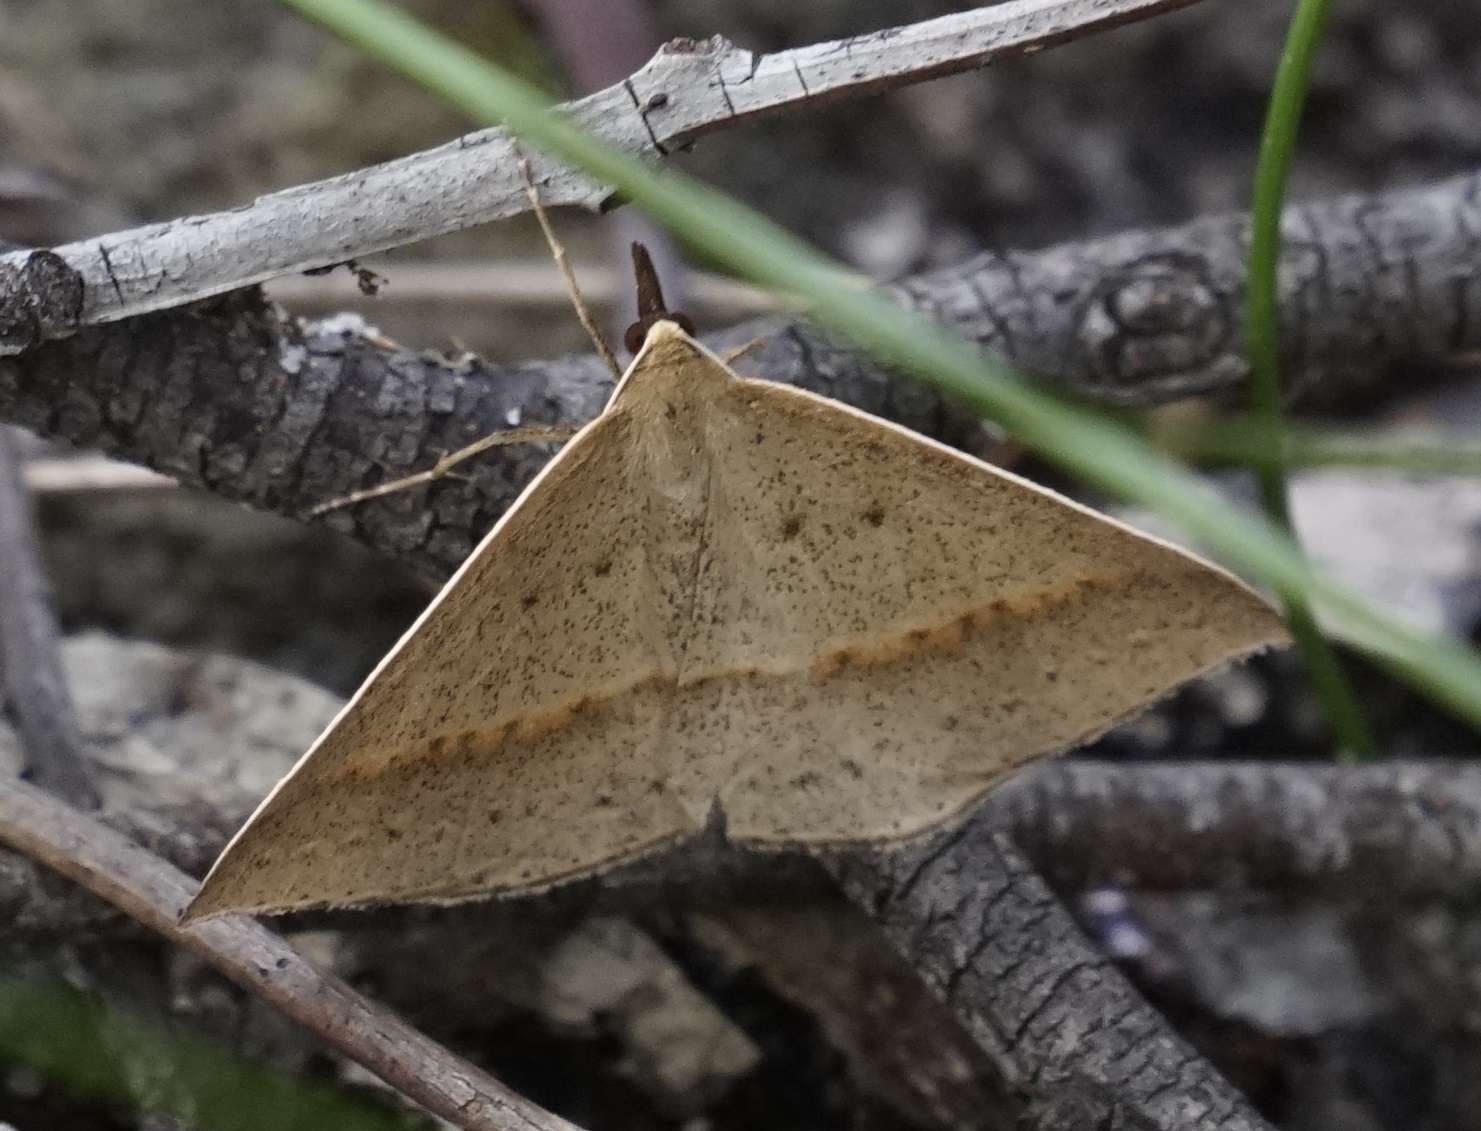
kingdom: Animalia
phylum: Arthropoda
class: Insecta
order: Lepidoptera
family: Geometridae
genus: Epidesmia
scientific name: Epidesmia tryxaria
